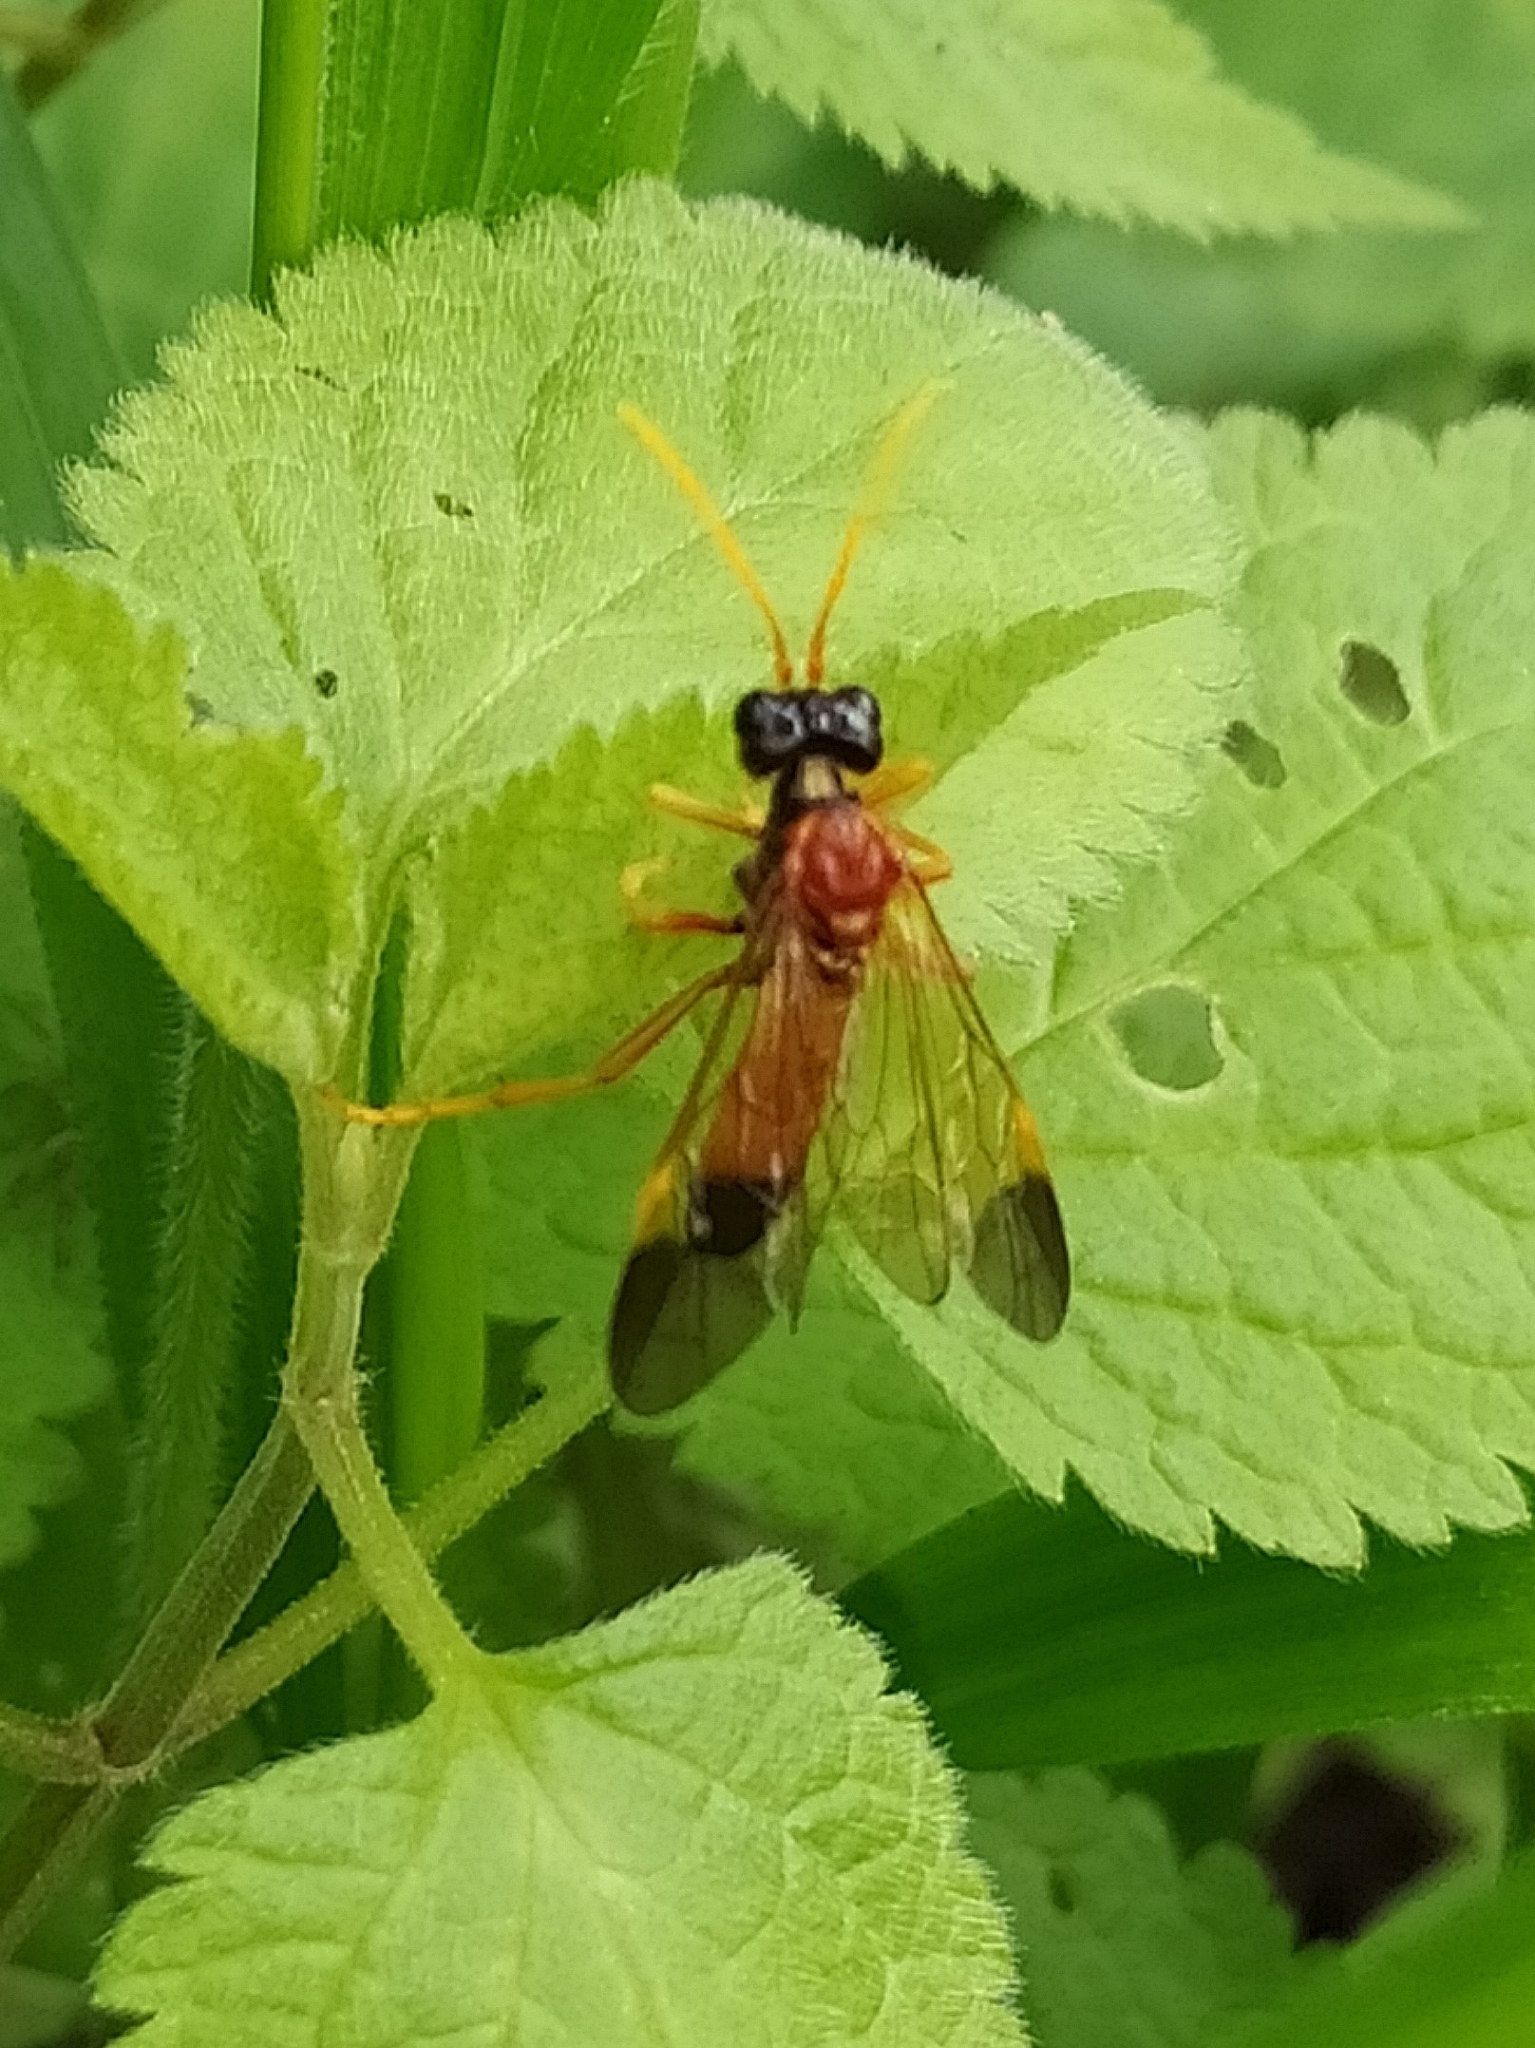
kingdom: Animalia
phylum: Arthropoda
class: Insecta
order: Hymenoptera
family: Tenthredinidae
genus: Tenthredo
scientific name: Tenthredo campestris
